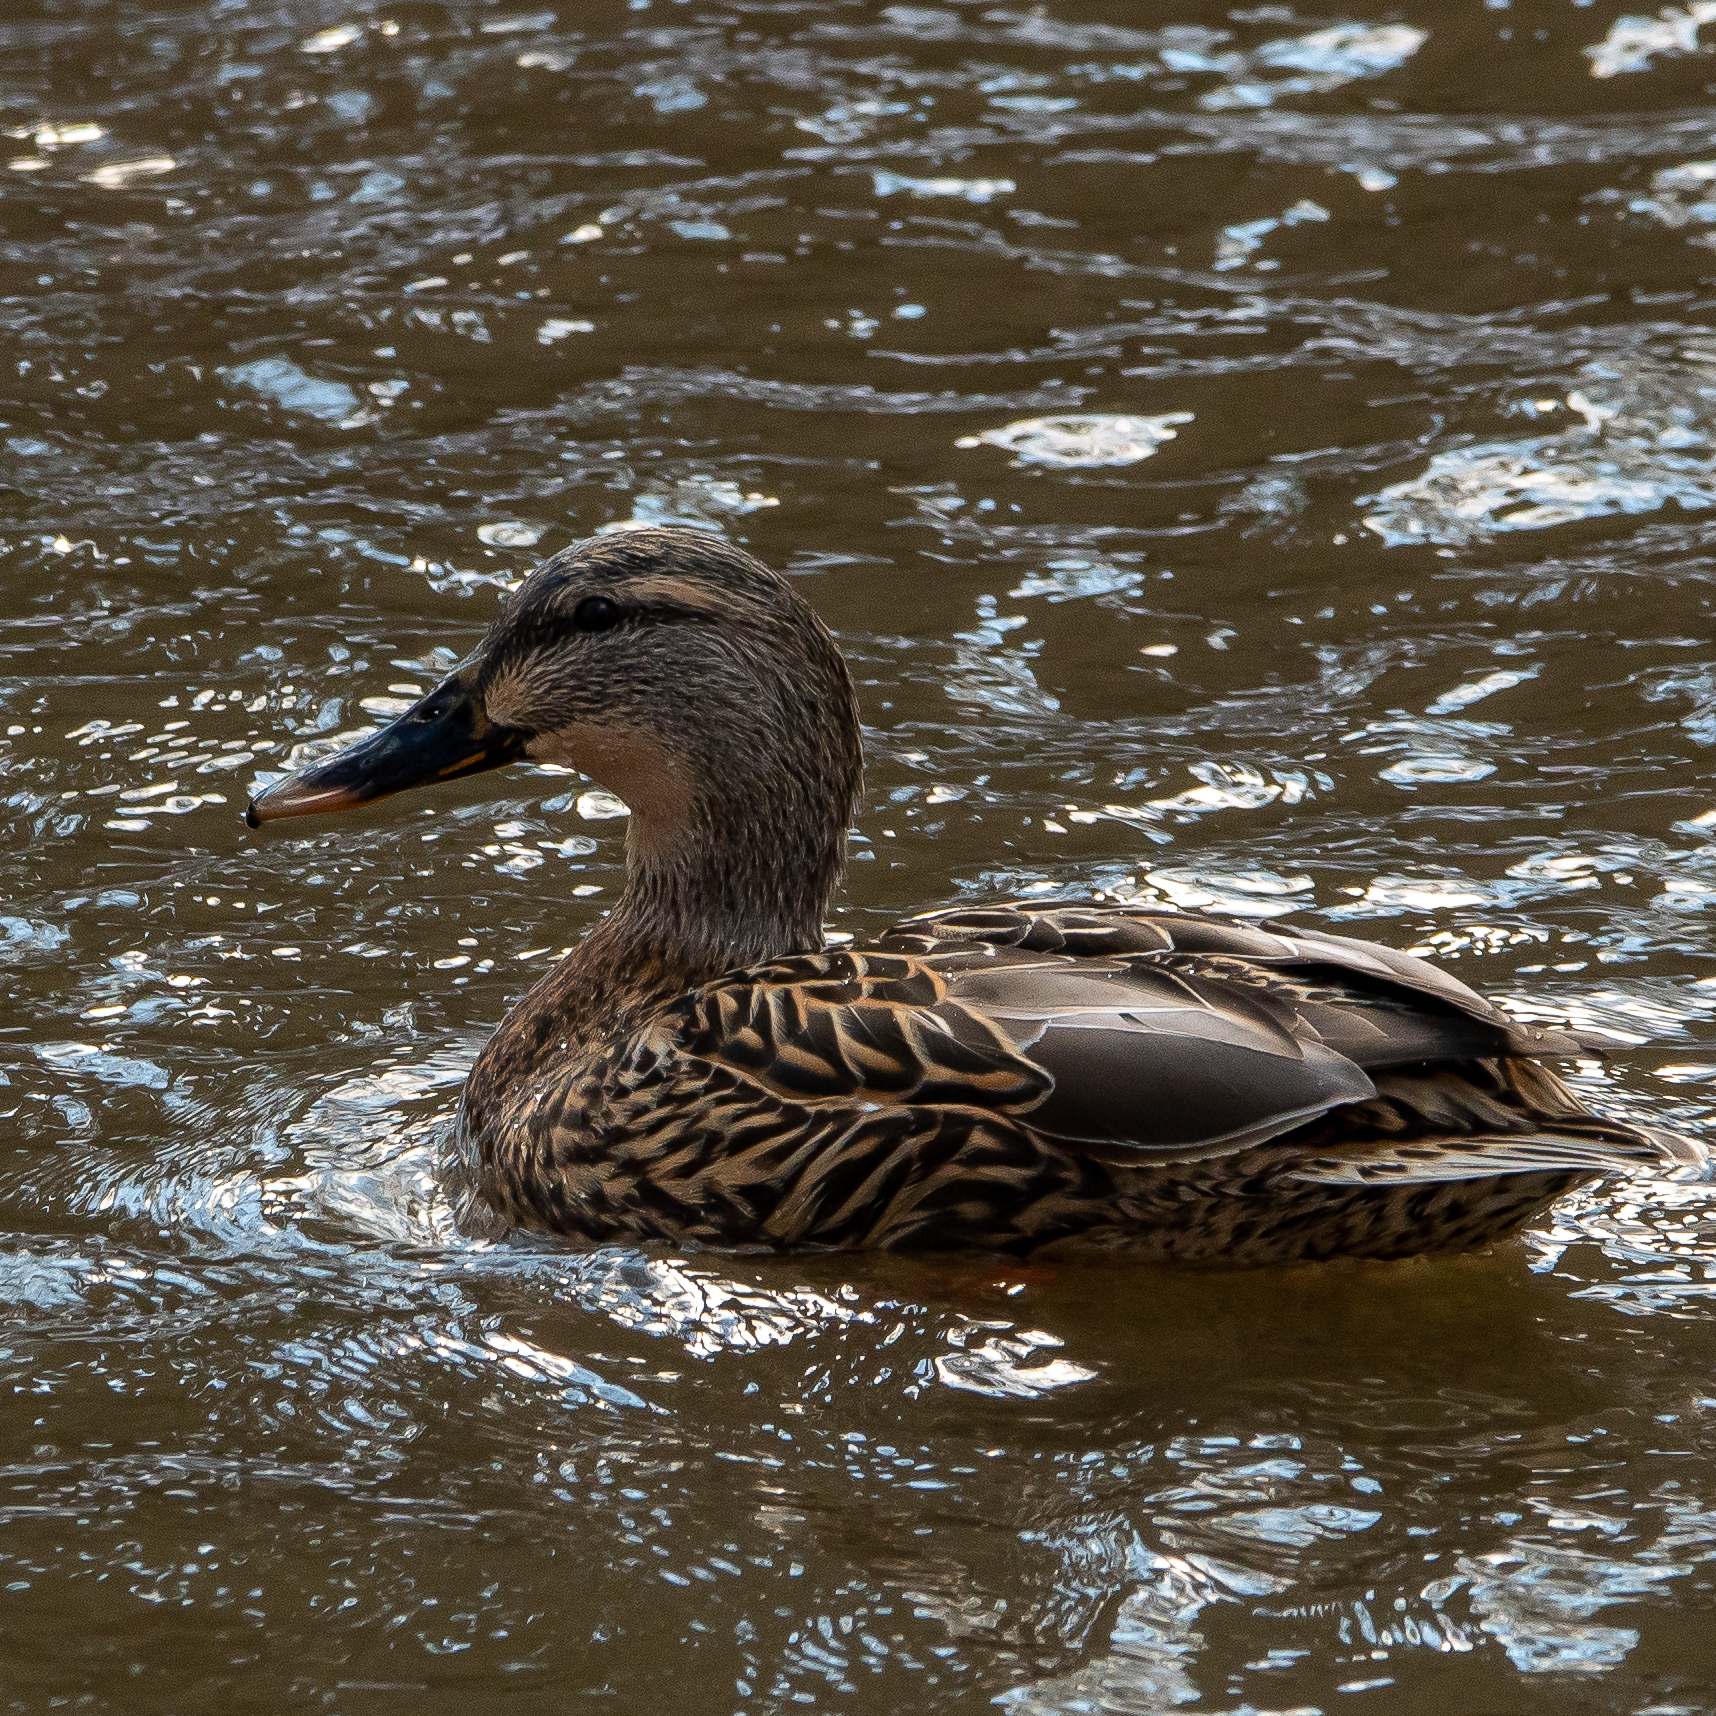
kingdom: Animalia
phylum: Chordata
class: Aves
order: Anseriformes
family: Anatidae
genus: Anas
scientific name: Anas platyrhynchos
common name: Mallard
